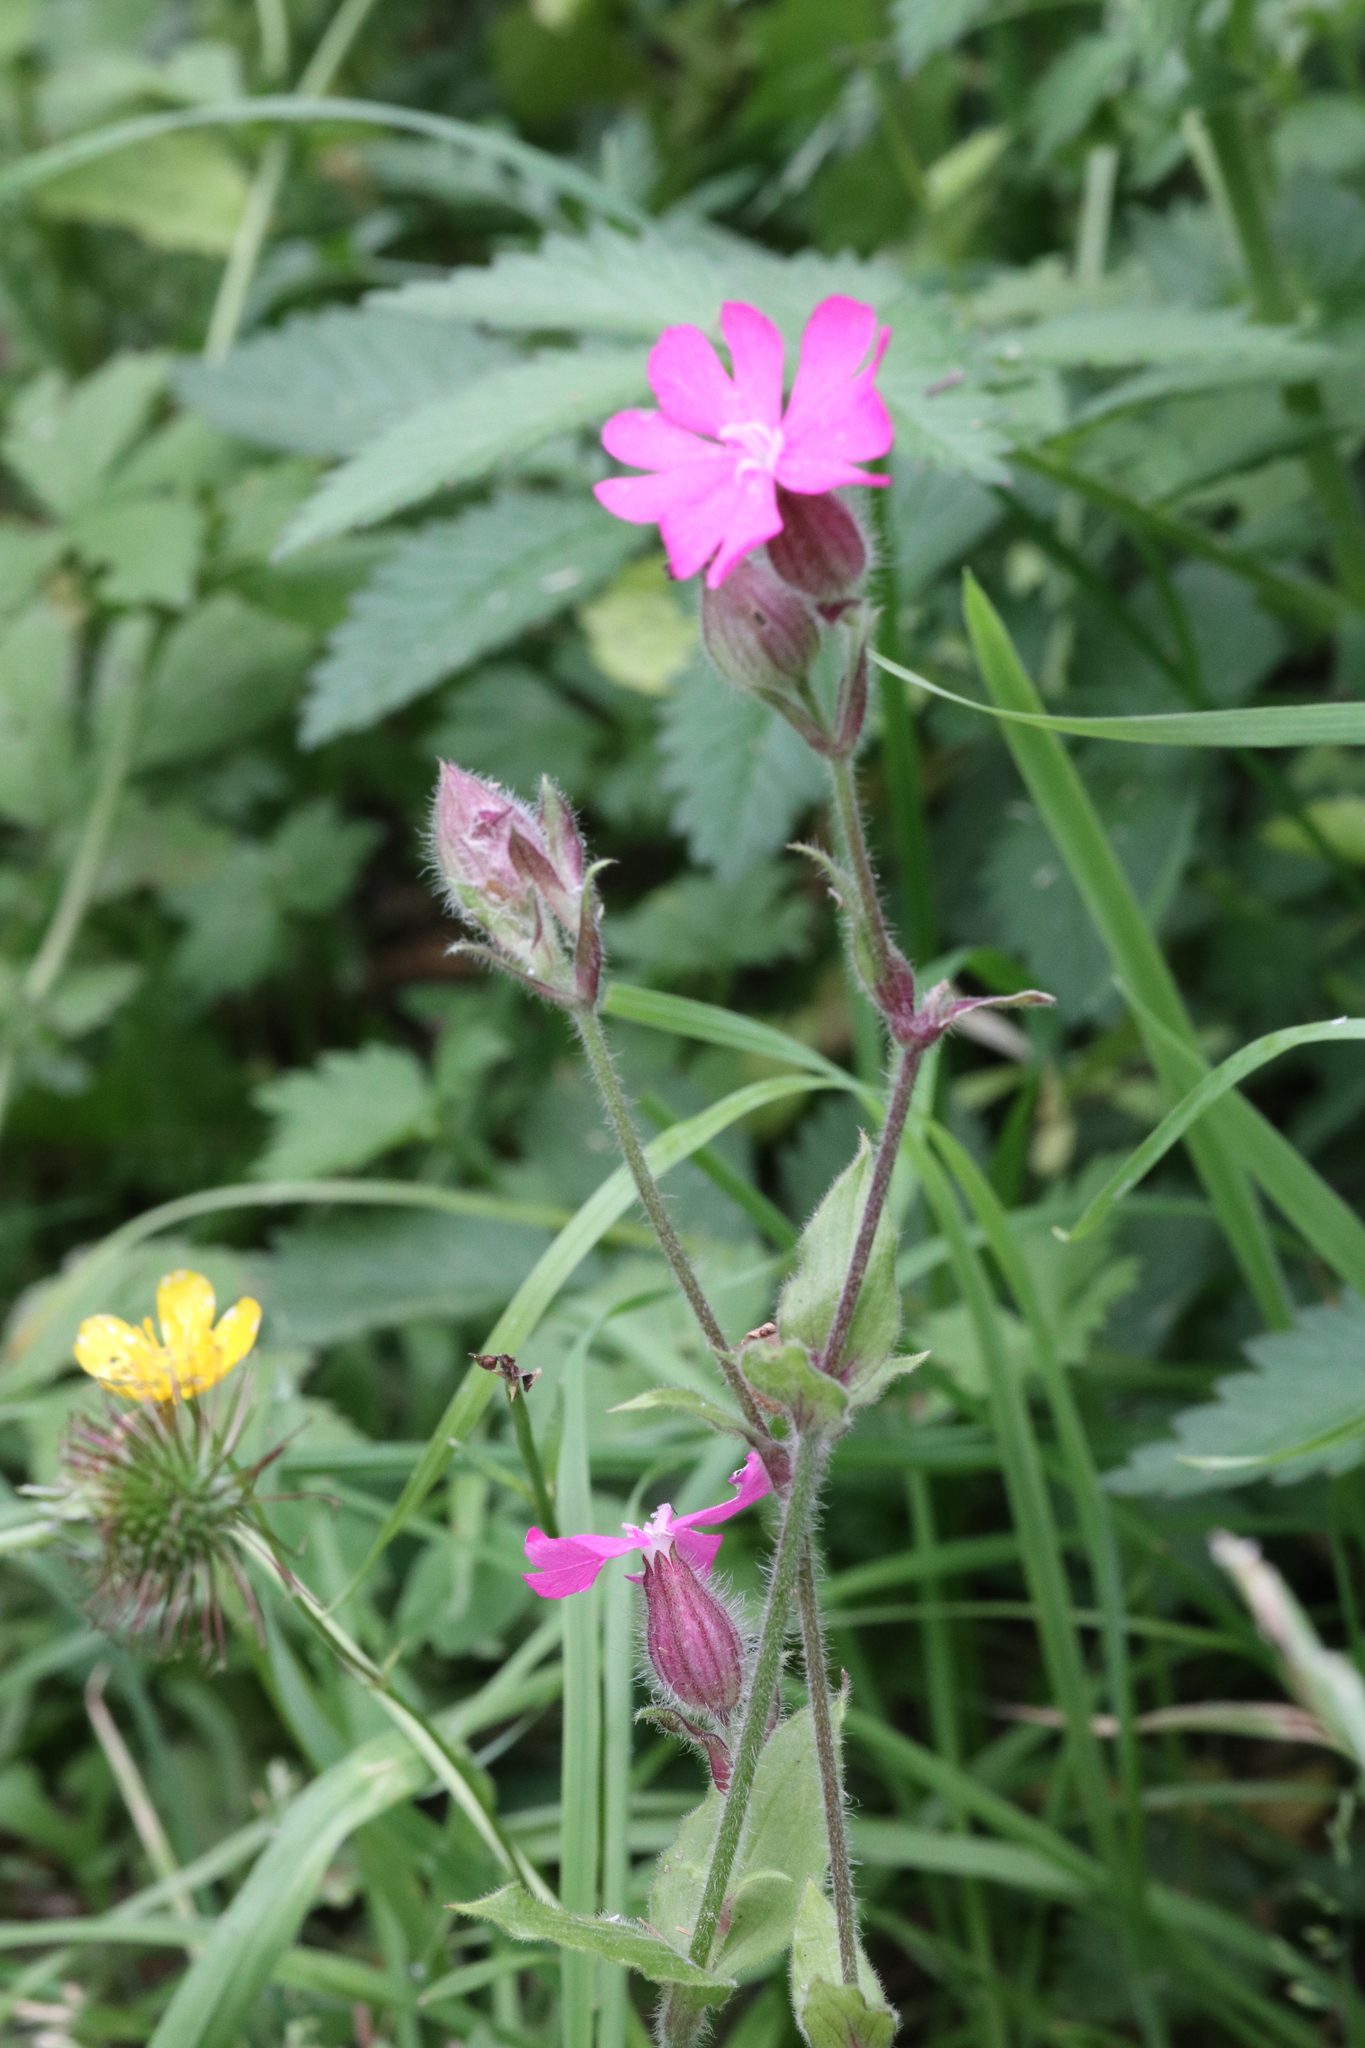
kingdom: Plantae
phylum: Tracheophyta
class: Magnoliopsida
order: Caryophyllales
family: Caryophyllaceae
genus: Silene
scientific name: Silene dioica
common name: Red campion
